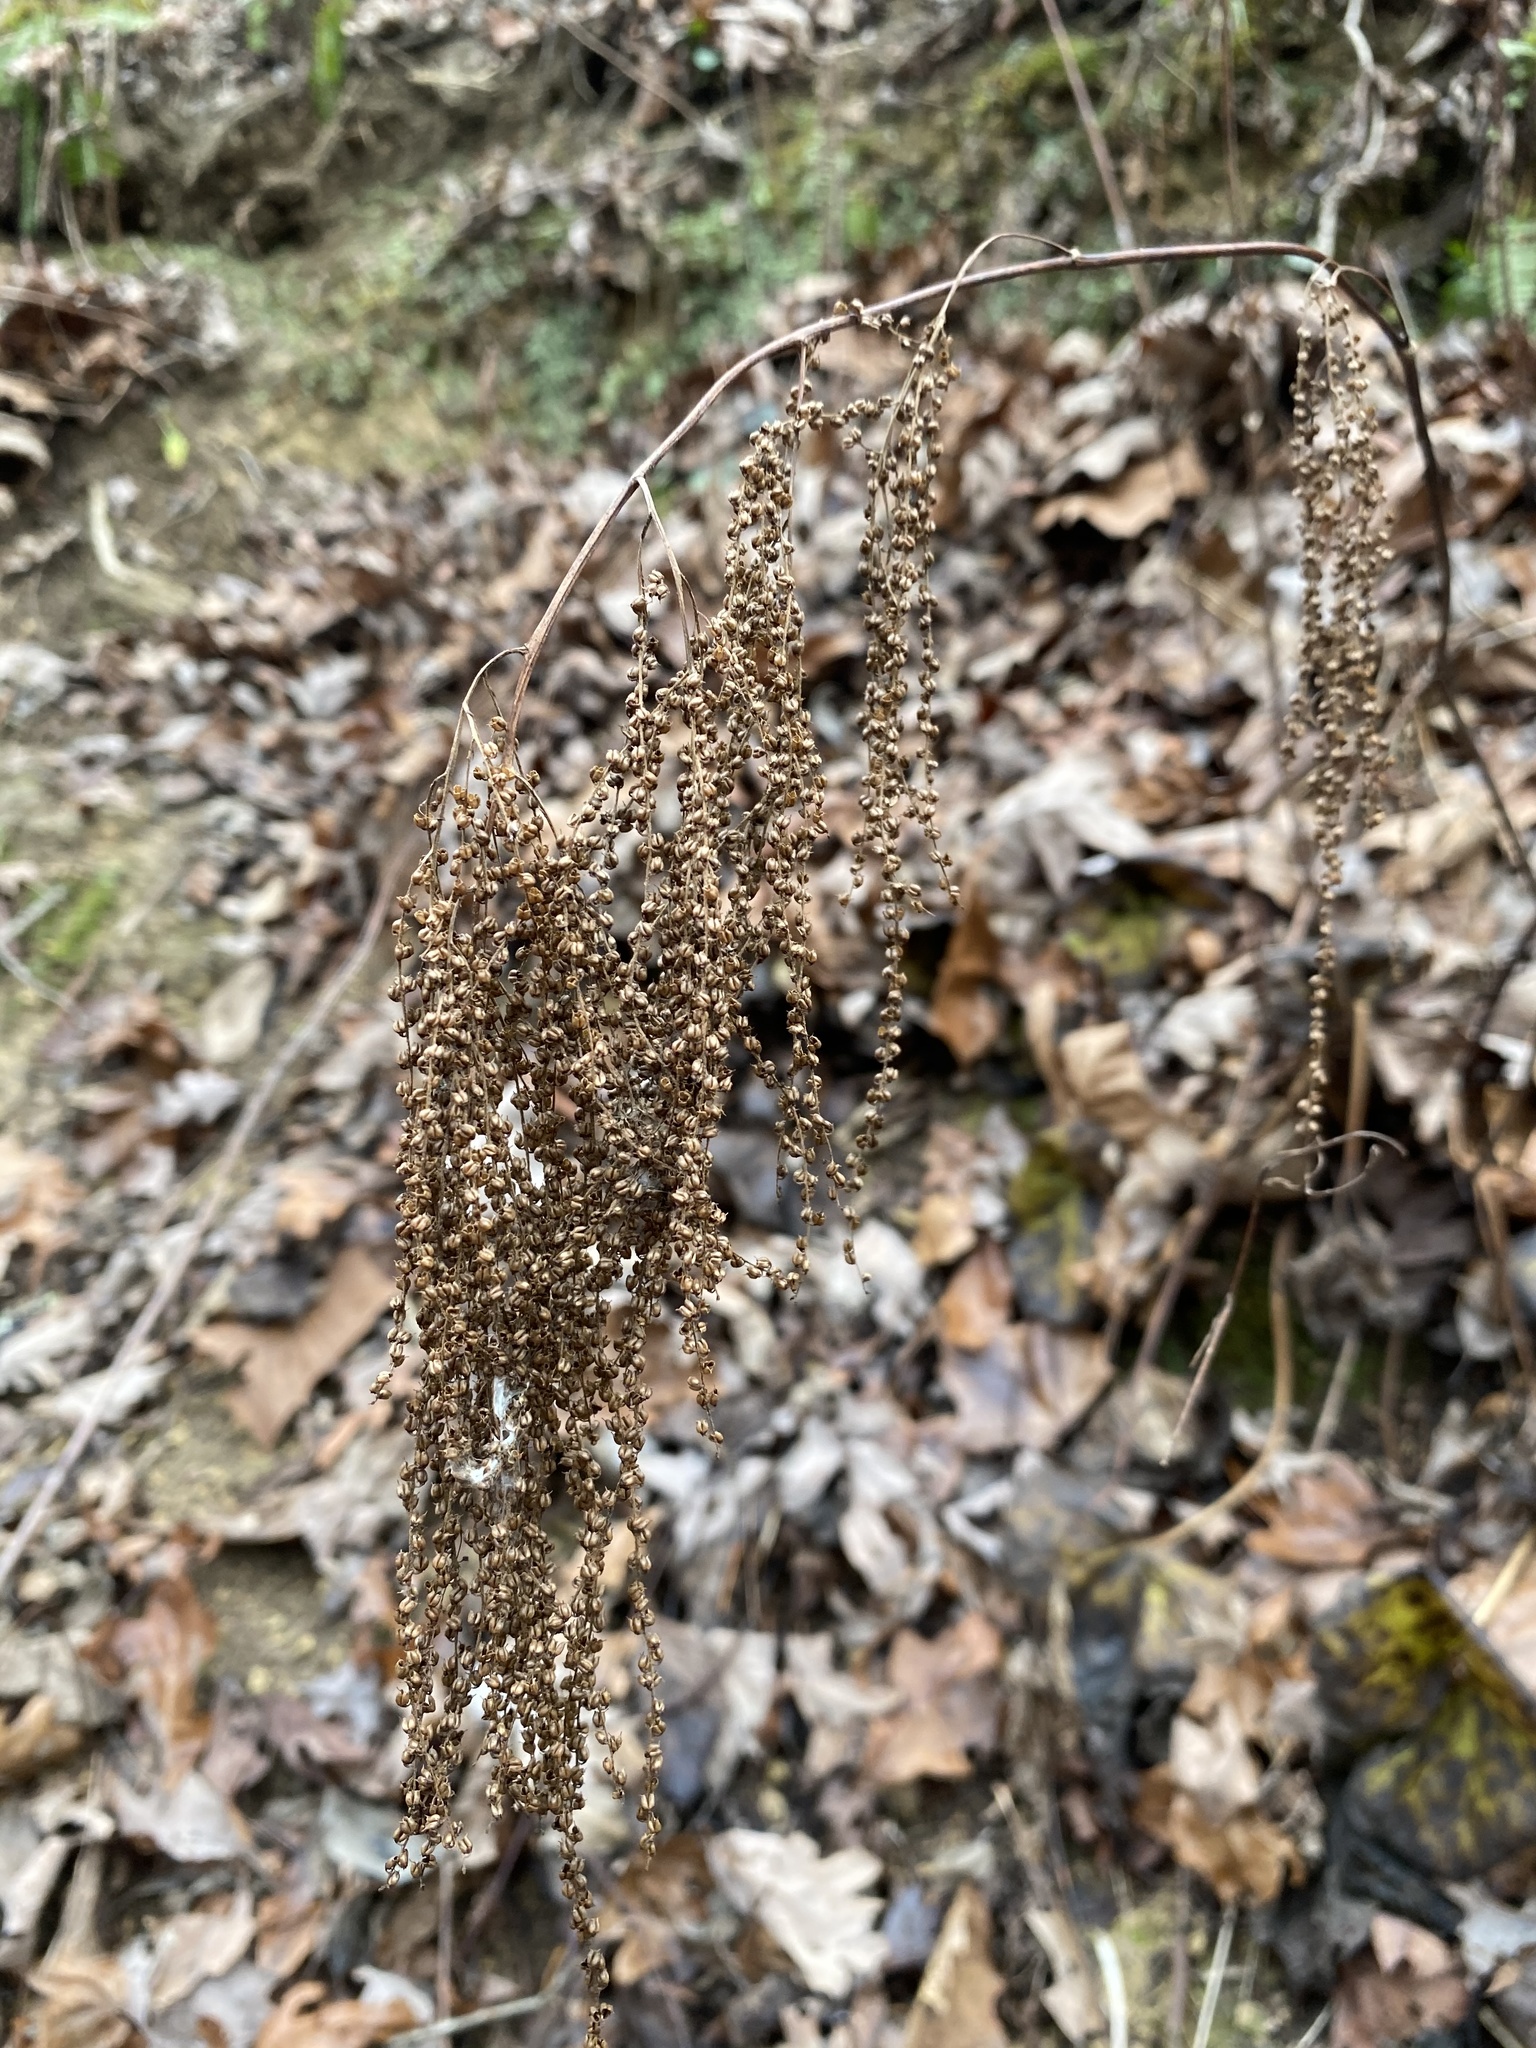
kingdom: Plantae
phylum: Tracheophyta
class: Magnoliopsida
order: Rosales
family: Rosaceae
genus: Aruncus
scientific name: Aruncus dioicus
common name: Buck's-beard
